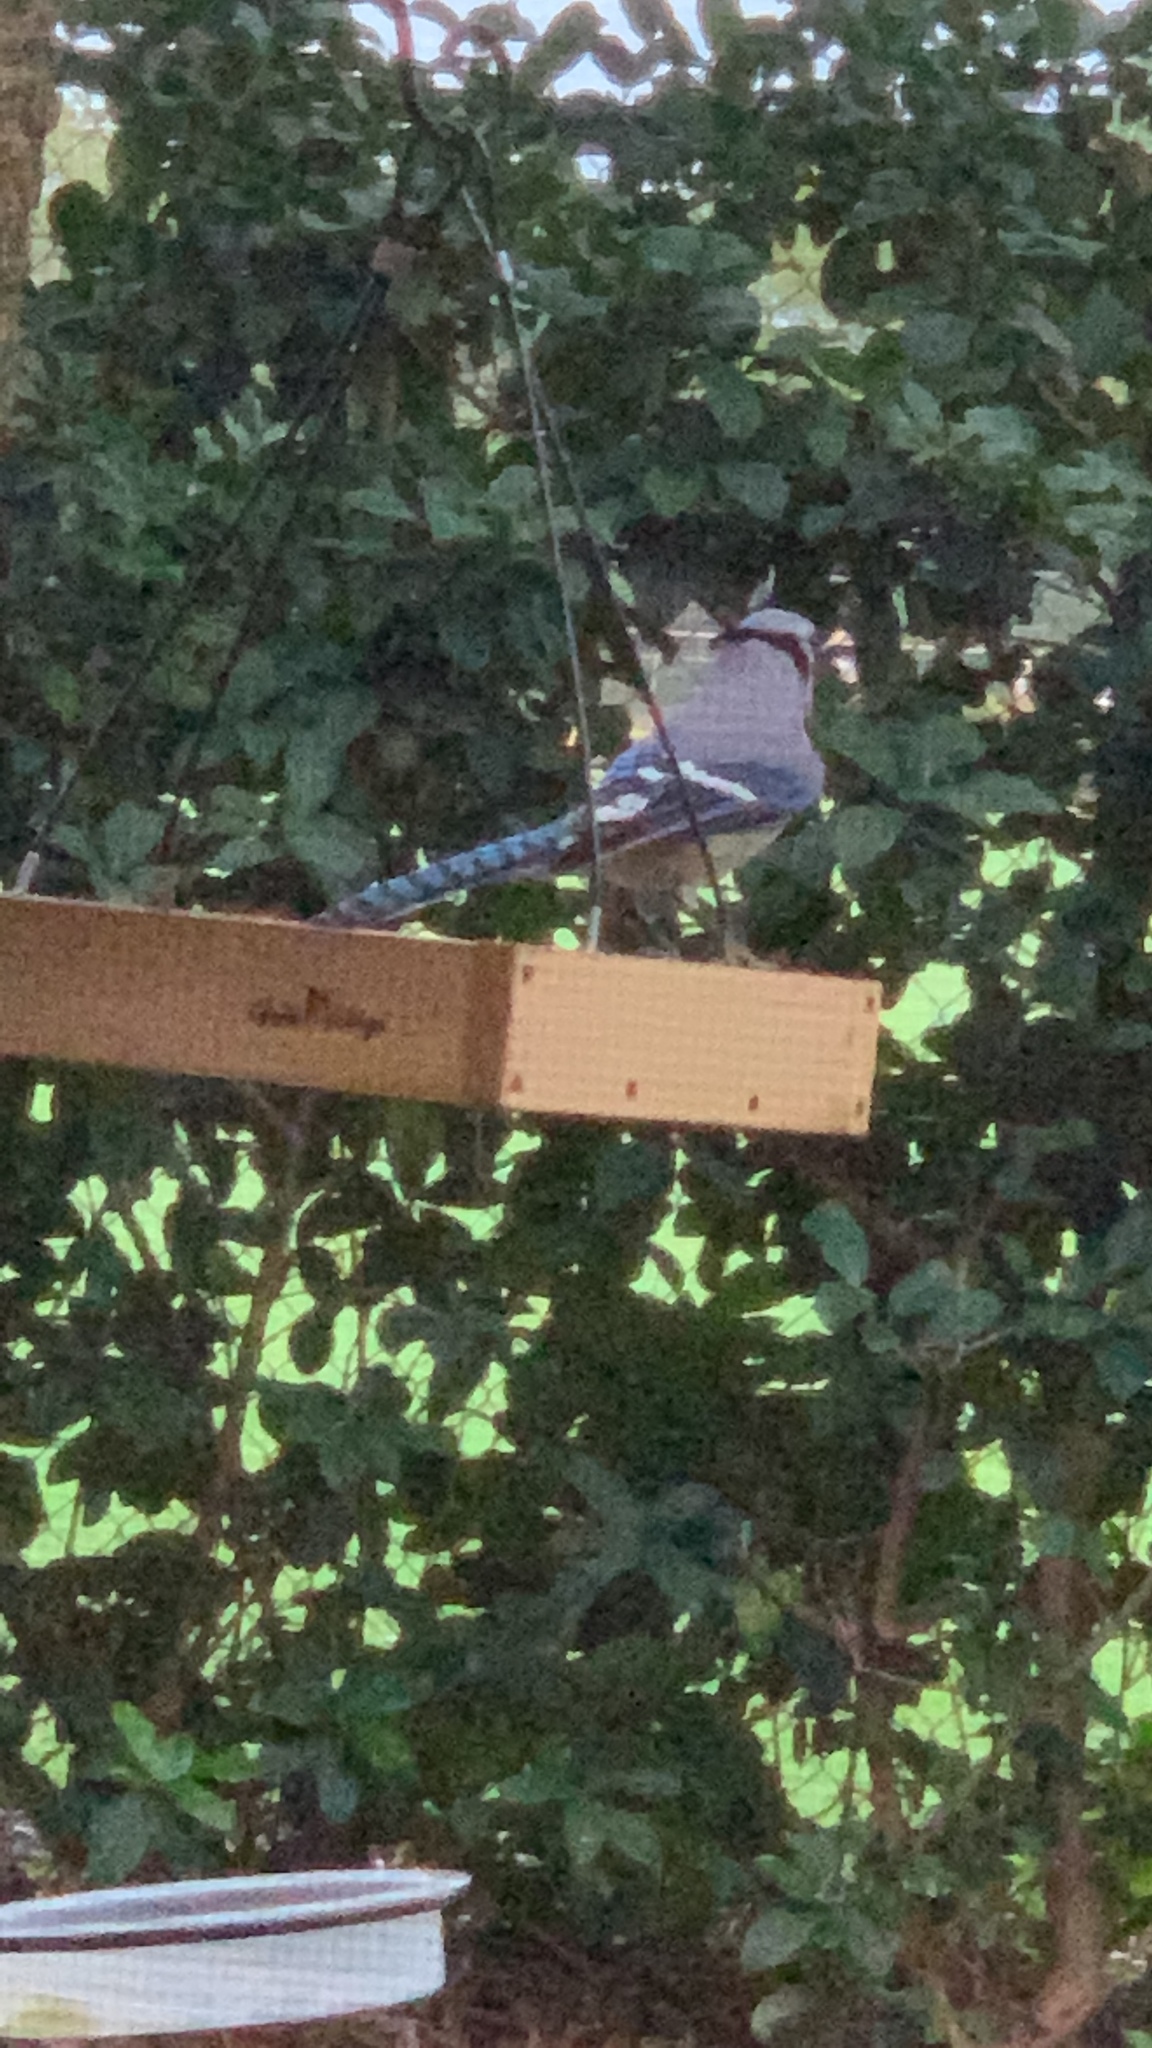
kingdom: Animalia
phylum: Chordata
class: Aves
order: Passeriformes
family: Corvidae
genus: Cyanocitta
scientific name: Cyanocitta cristata
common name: Blue jay
